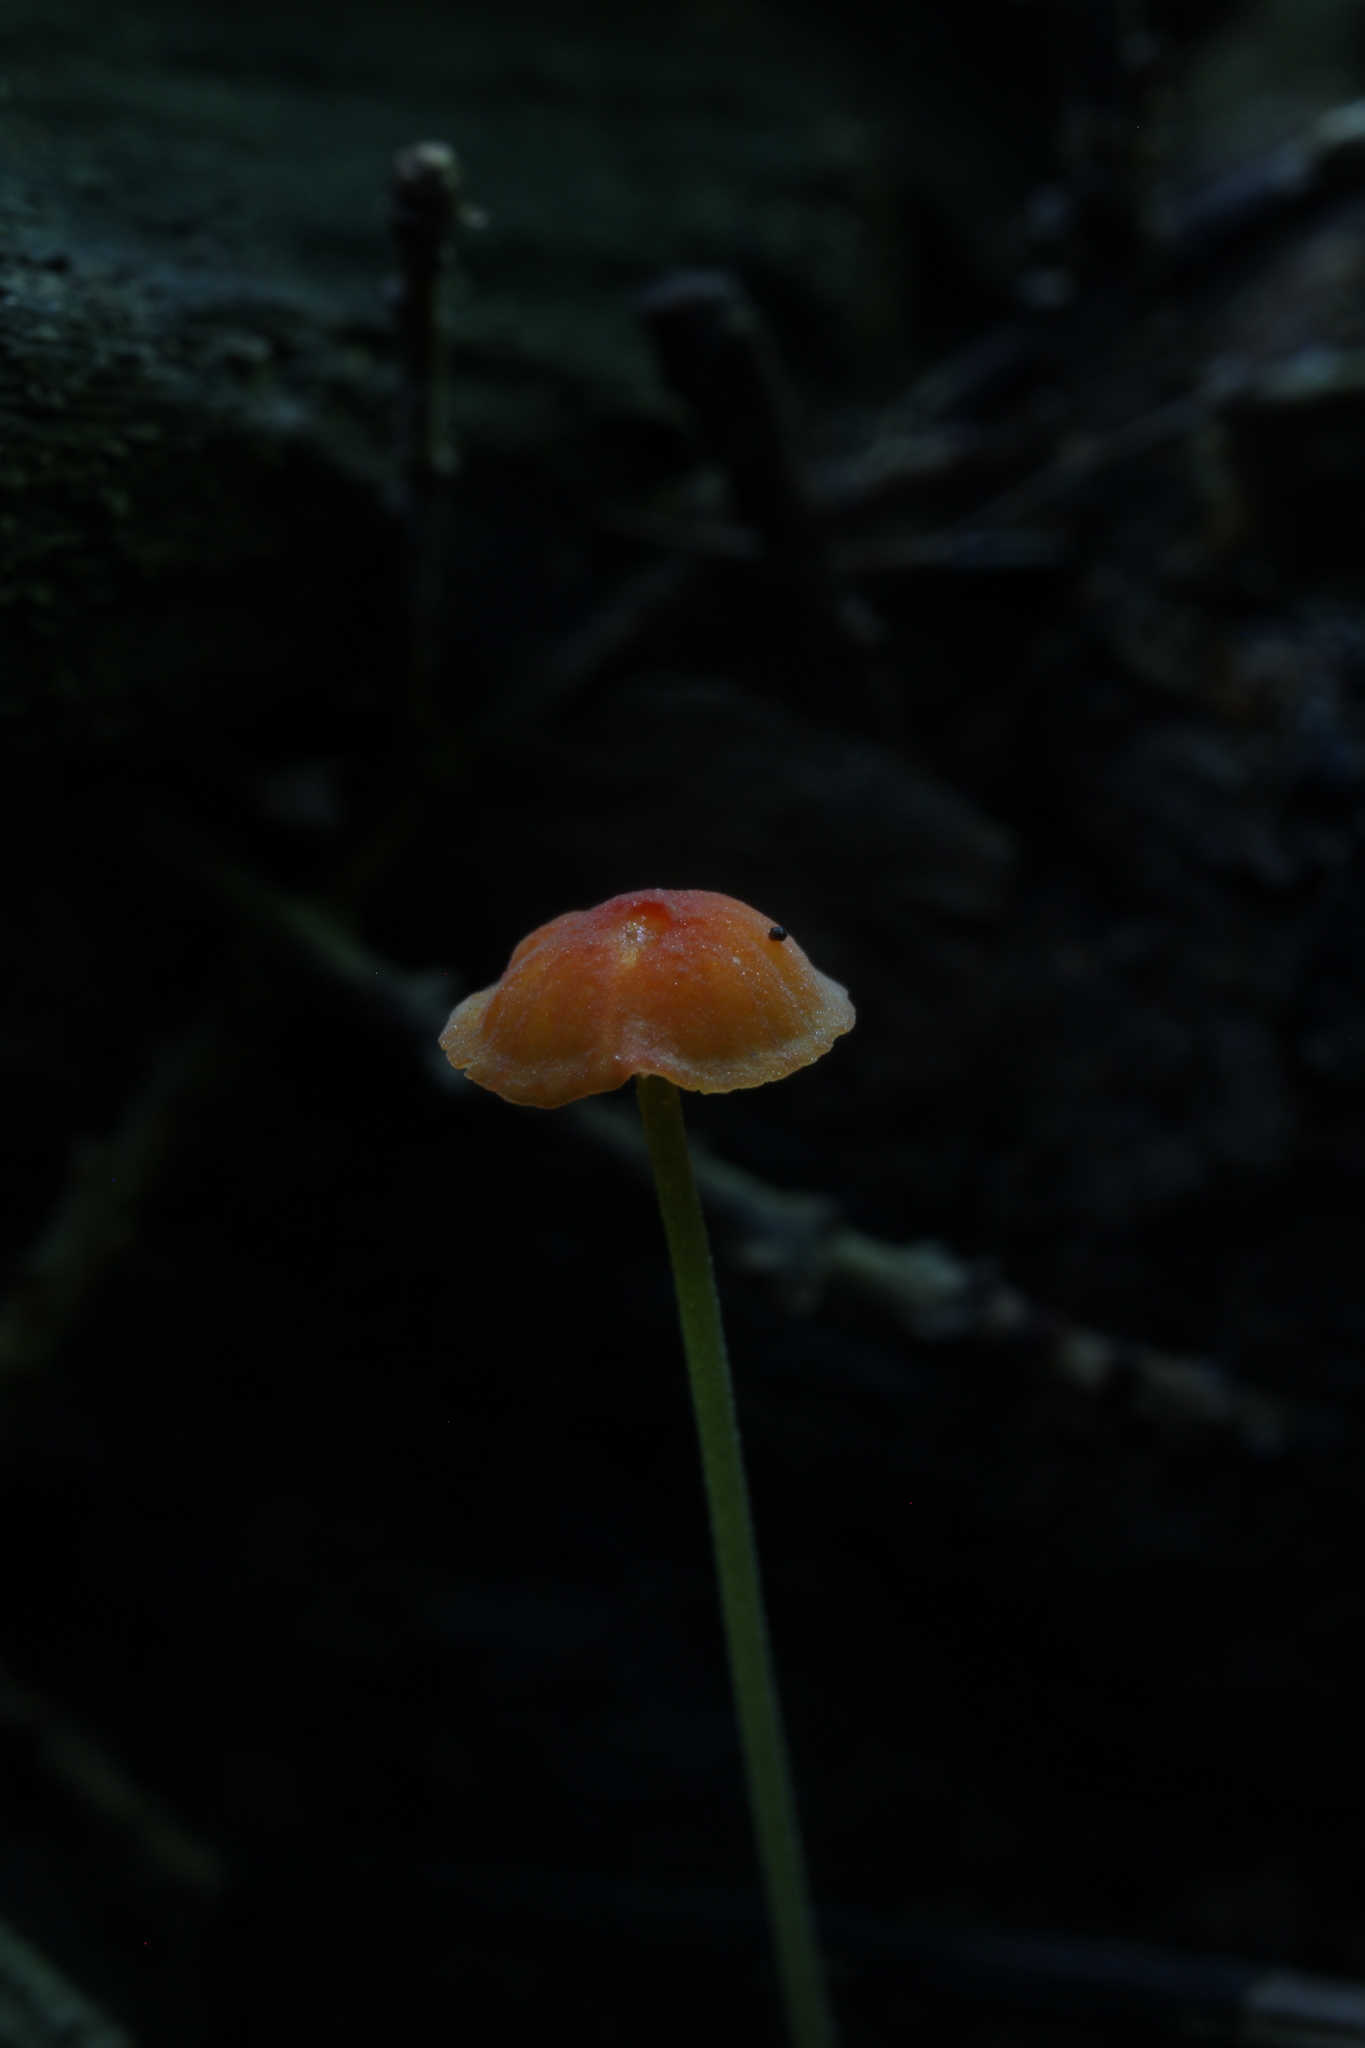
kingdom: Fungi
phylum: Basidiomycota
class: Agaricomycetes
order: Agaricales
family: Mycenaceae
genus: Mycena
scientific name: Mycena acicula
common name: Orange bonnet
